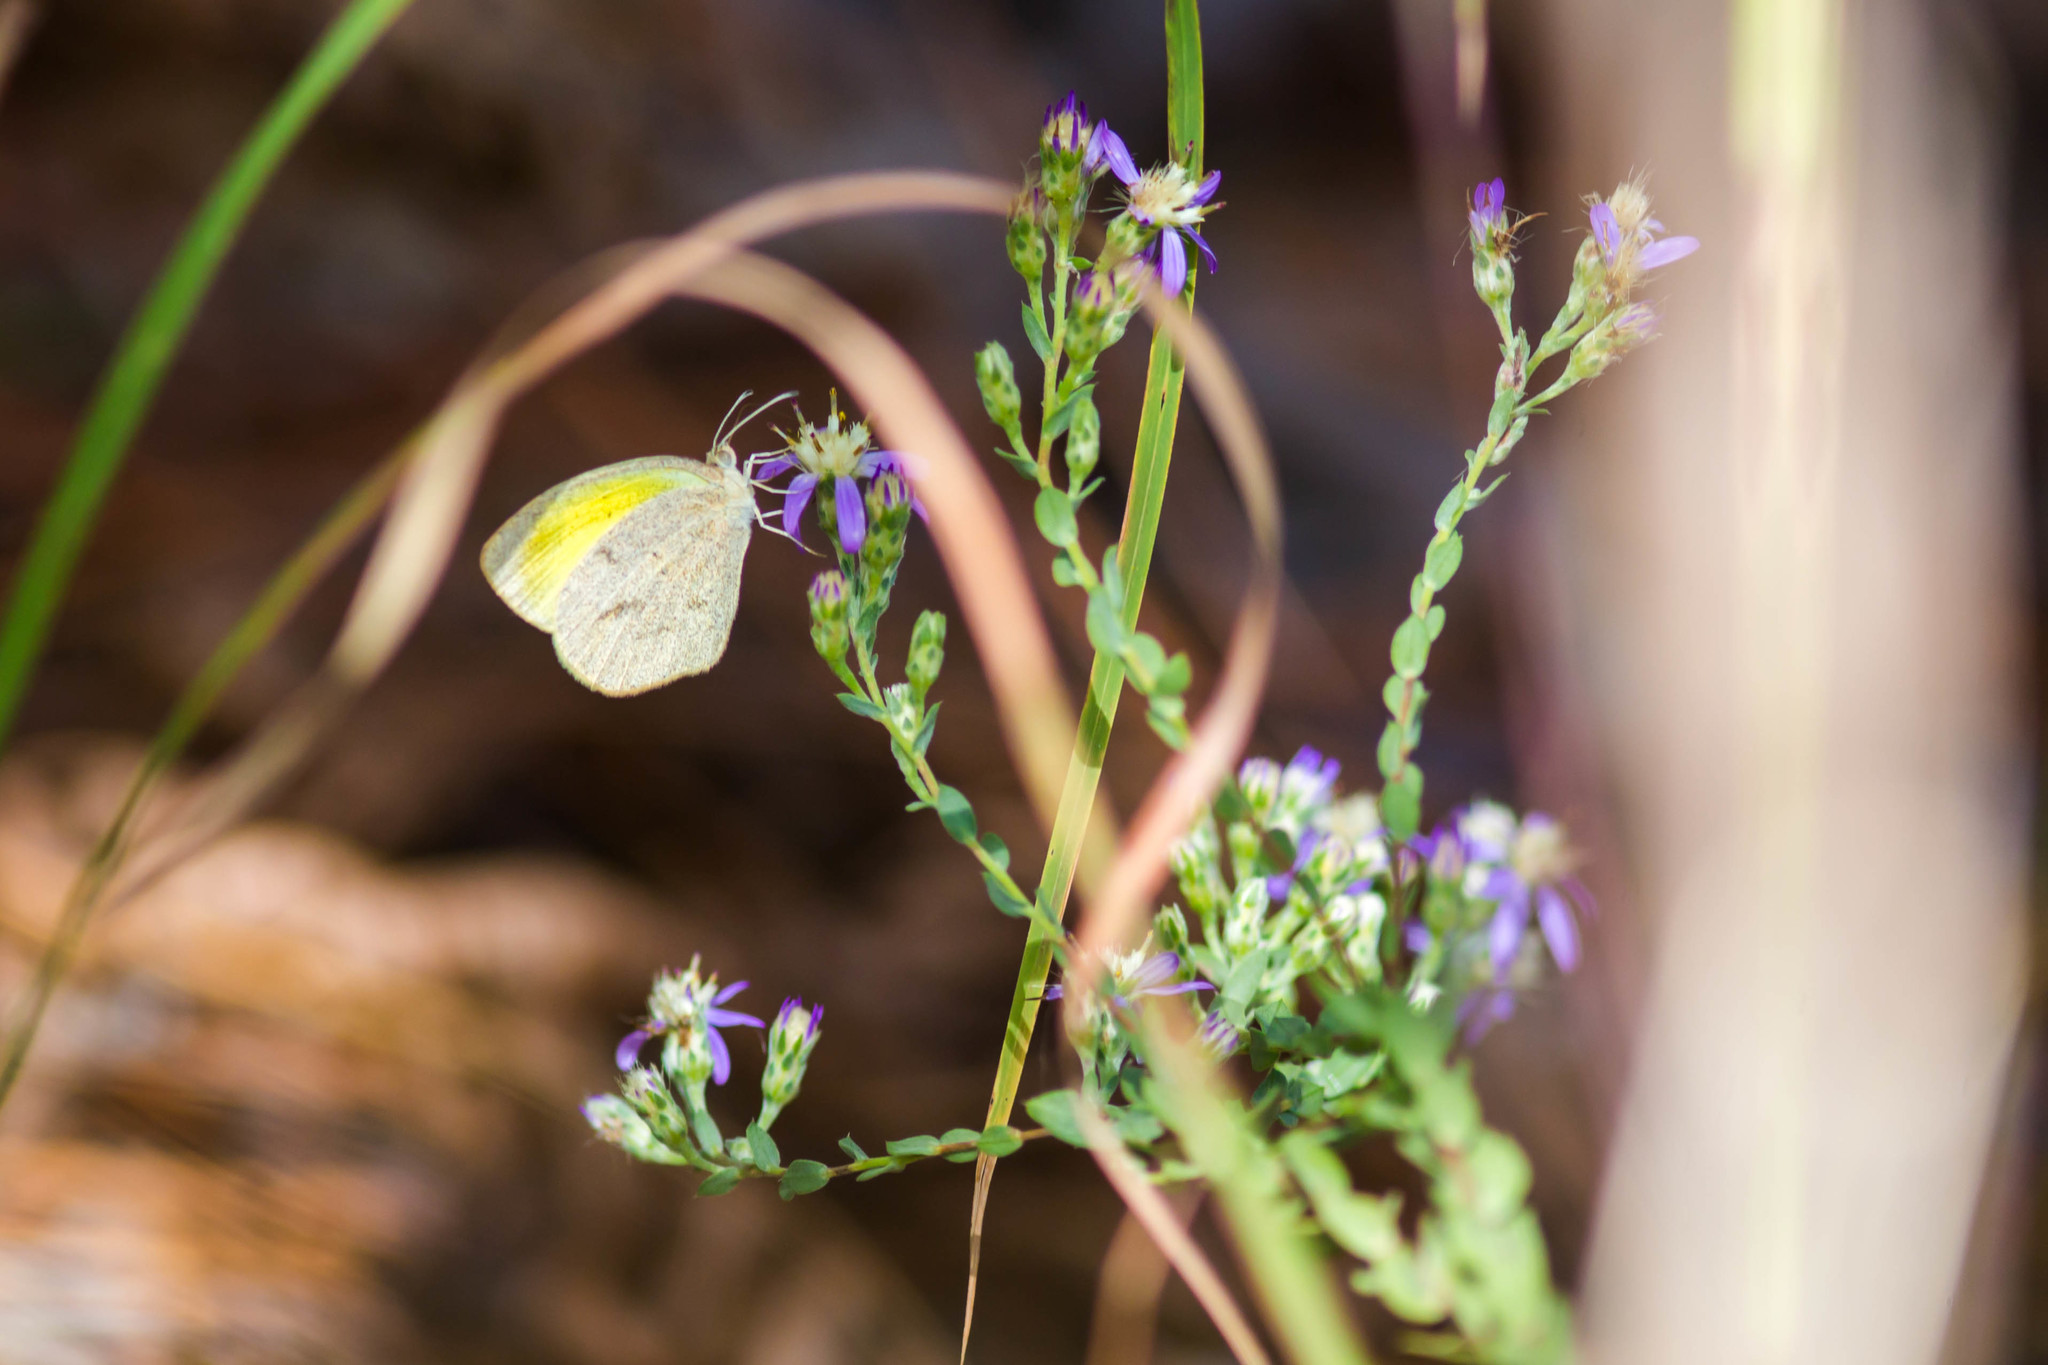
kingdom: Animalia
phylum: Arthropoda
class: Insecta
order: Lepidoptera
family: Pieridae
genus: Eurema
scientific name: Eurema daira
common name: Barred sulphur
